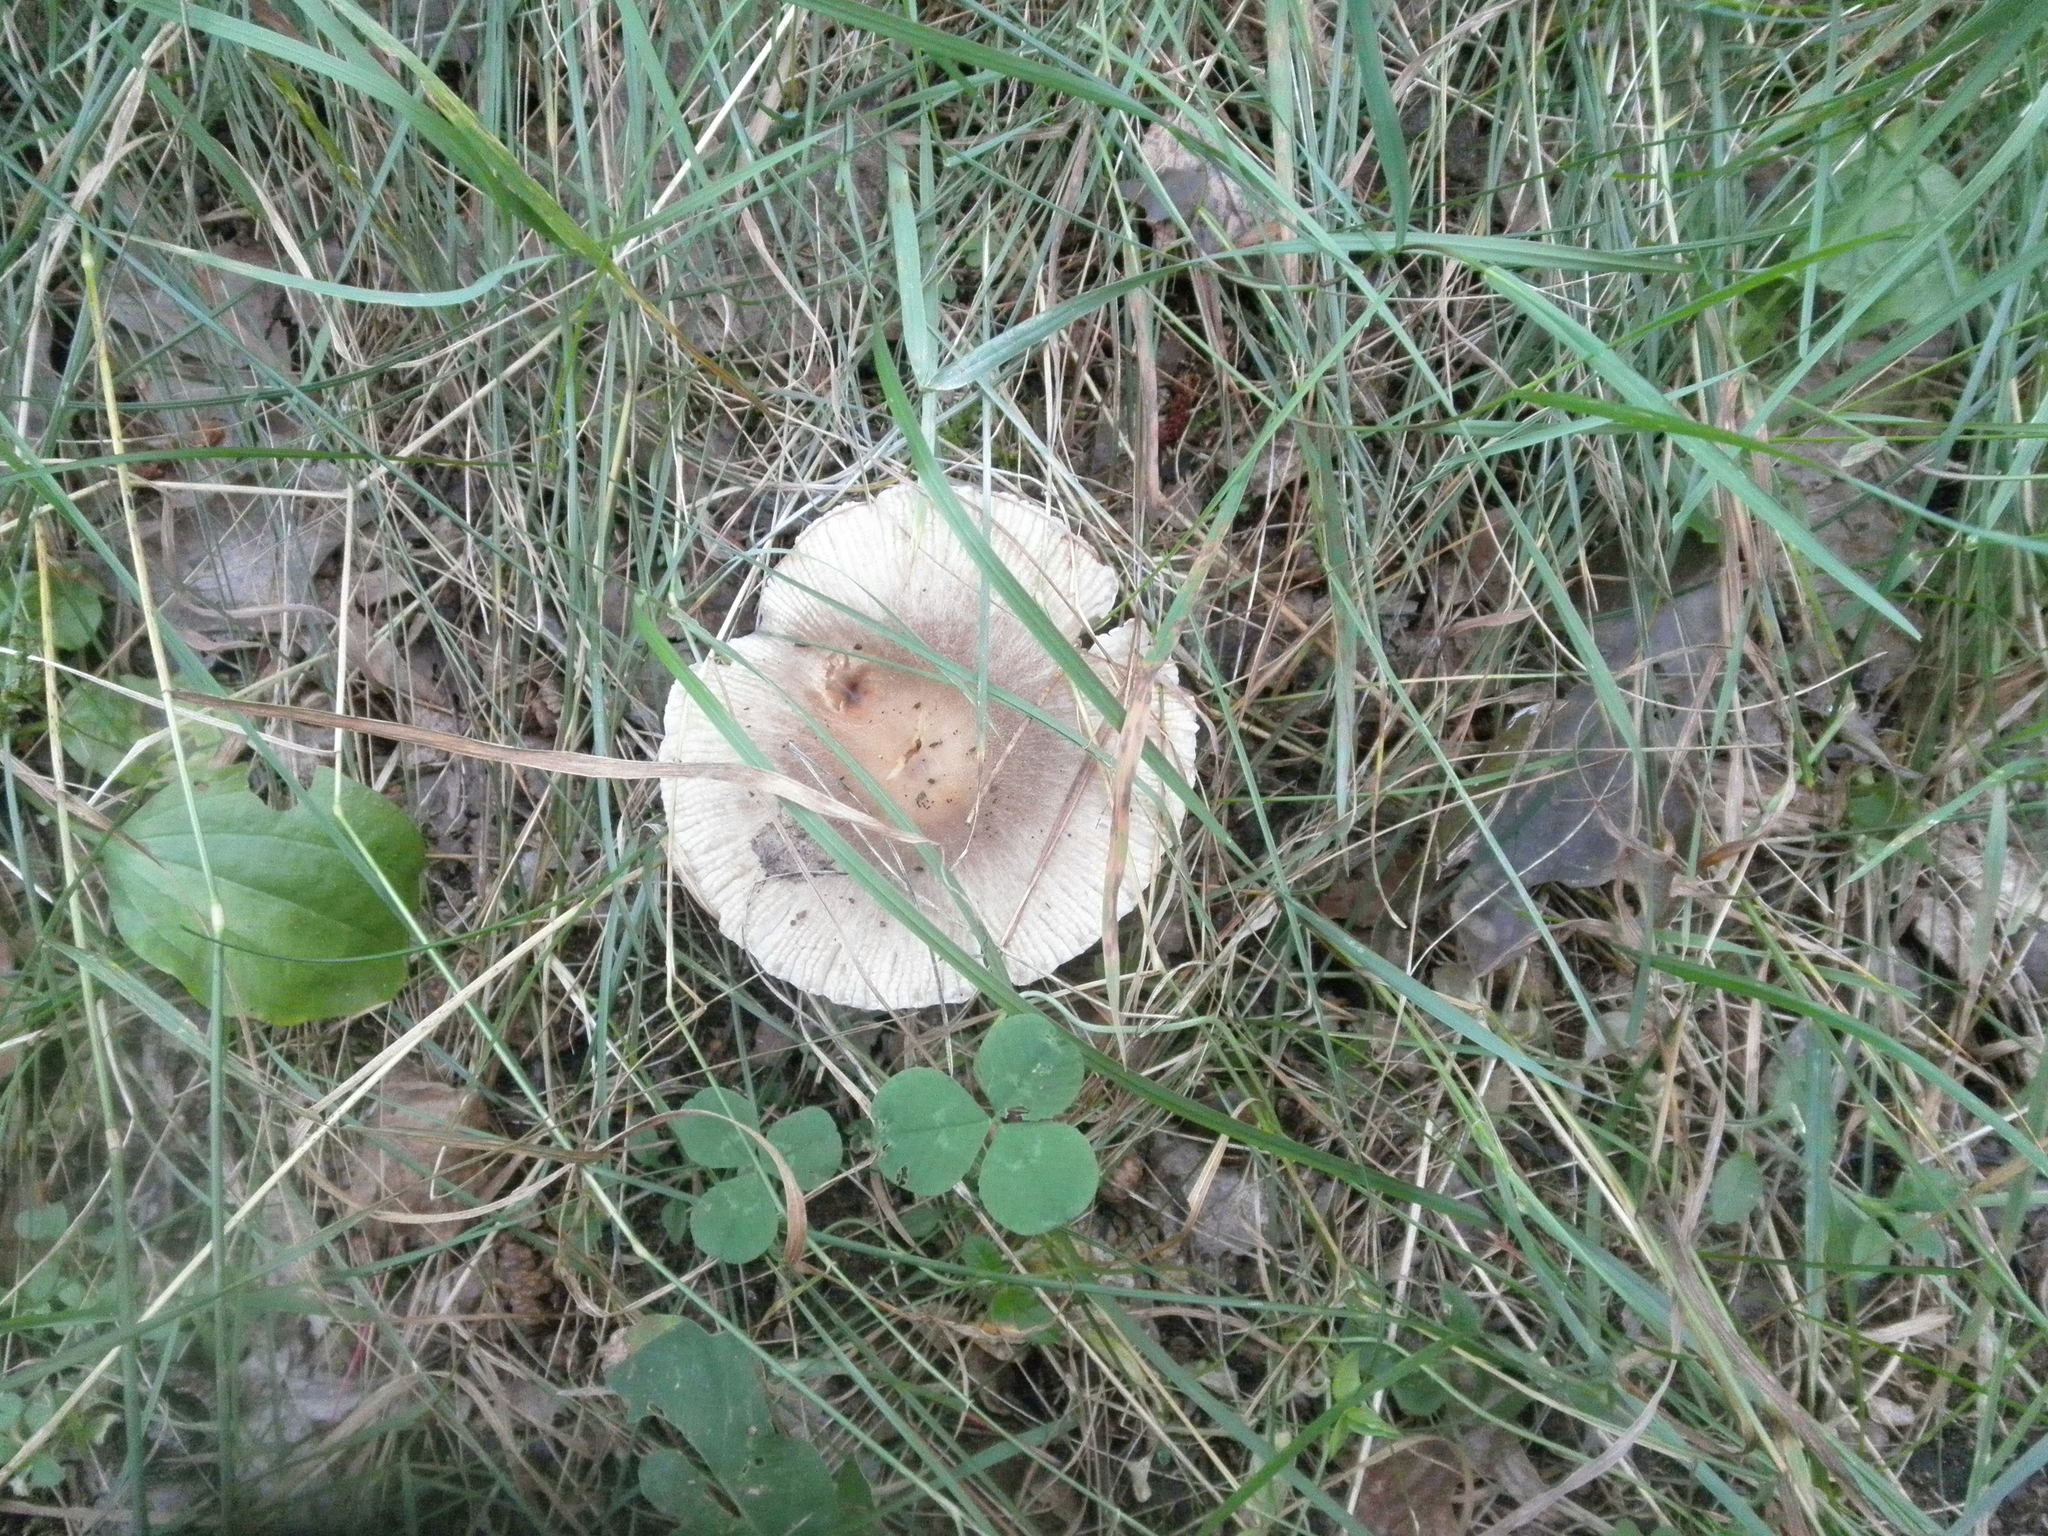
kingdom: Fungi
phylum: Basidiomycota
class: Agaricomycetes
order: Russulales
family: Russulaceae
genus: Russula
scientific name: Russula
